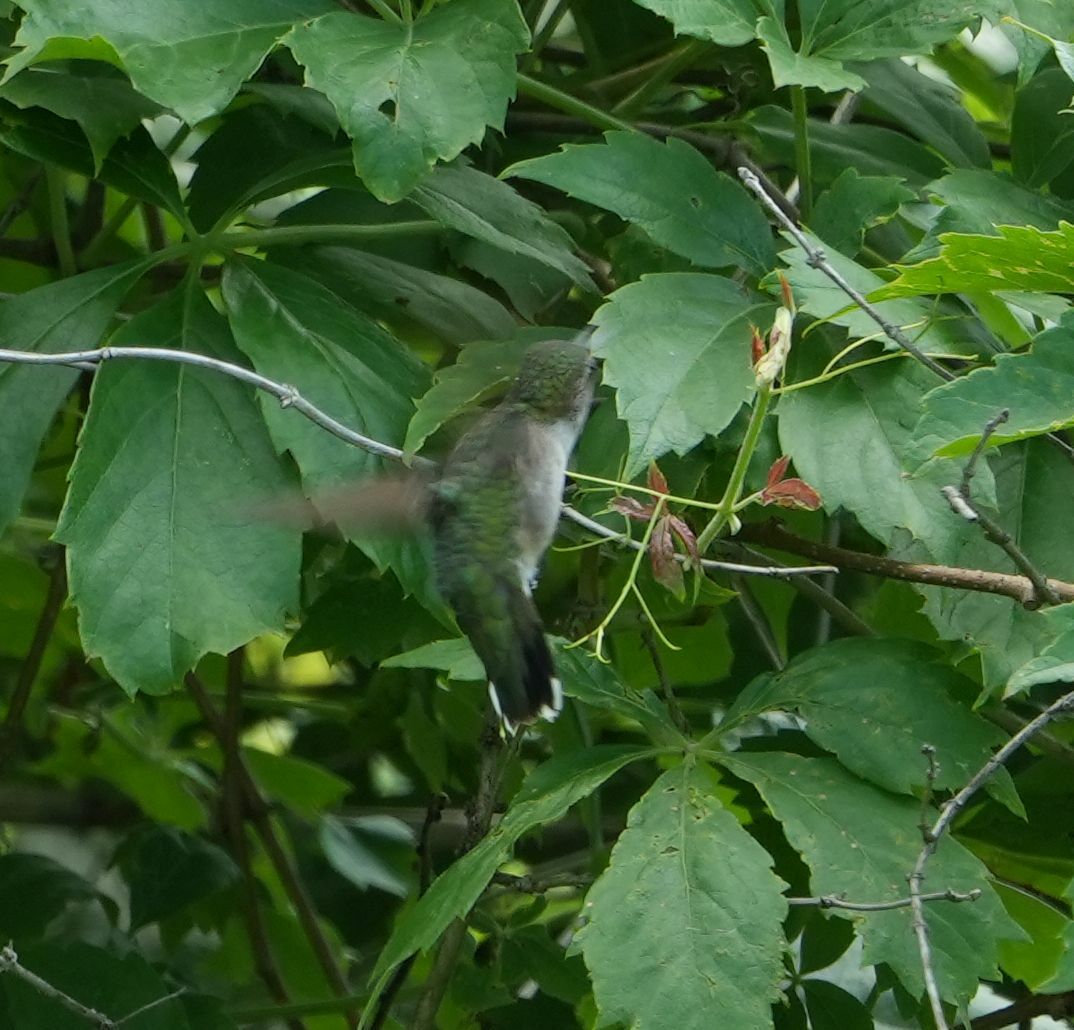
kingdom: Animalia
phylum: Chordata
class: Aves
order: Apodiformes
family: Trochilidae
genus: Archilochus
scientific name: Archilochus colubris
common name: Ruby-throated hummingbird
